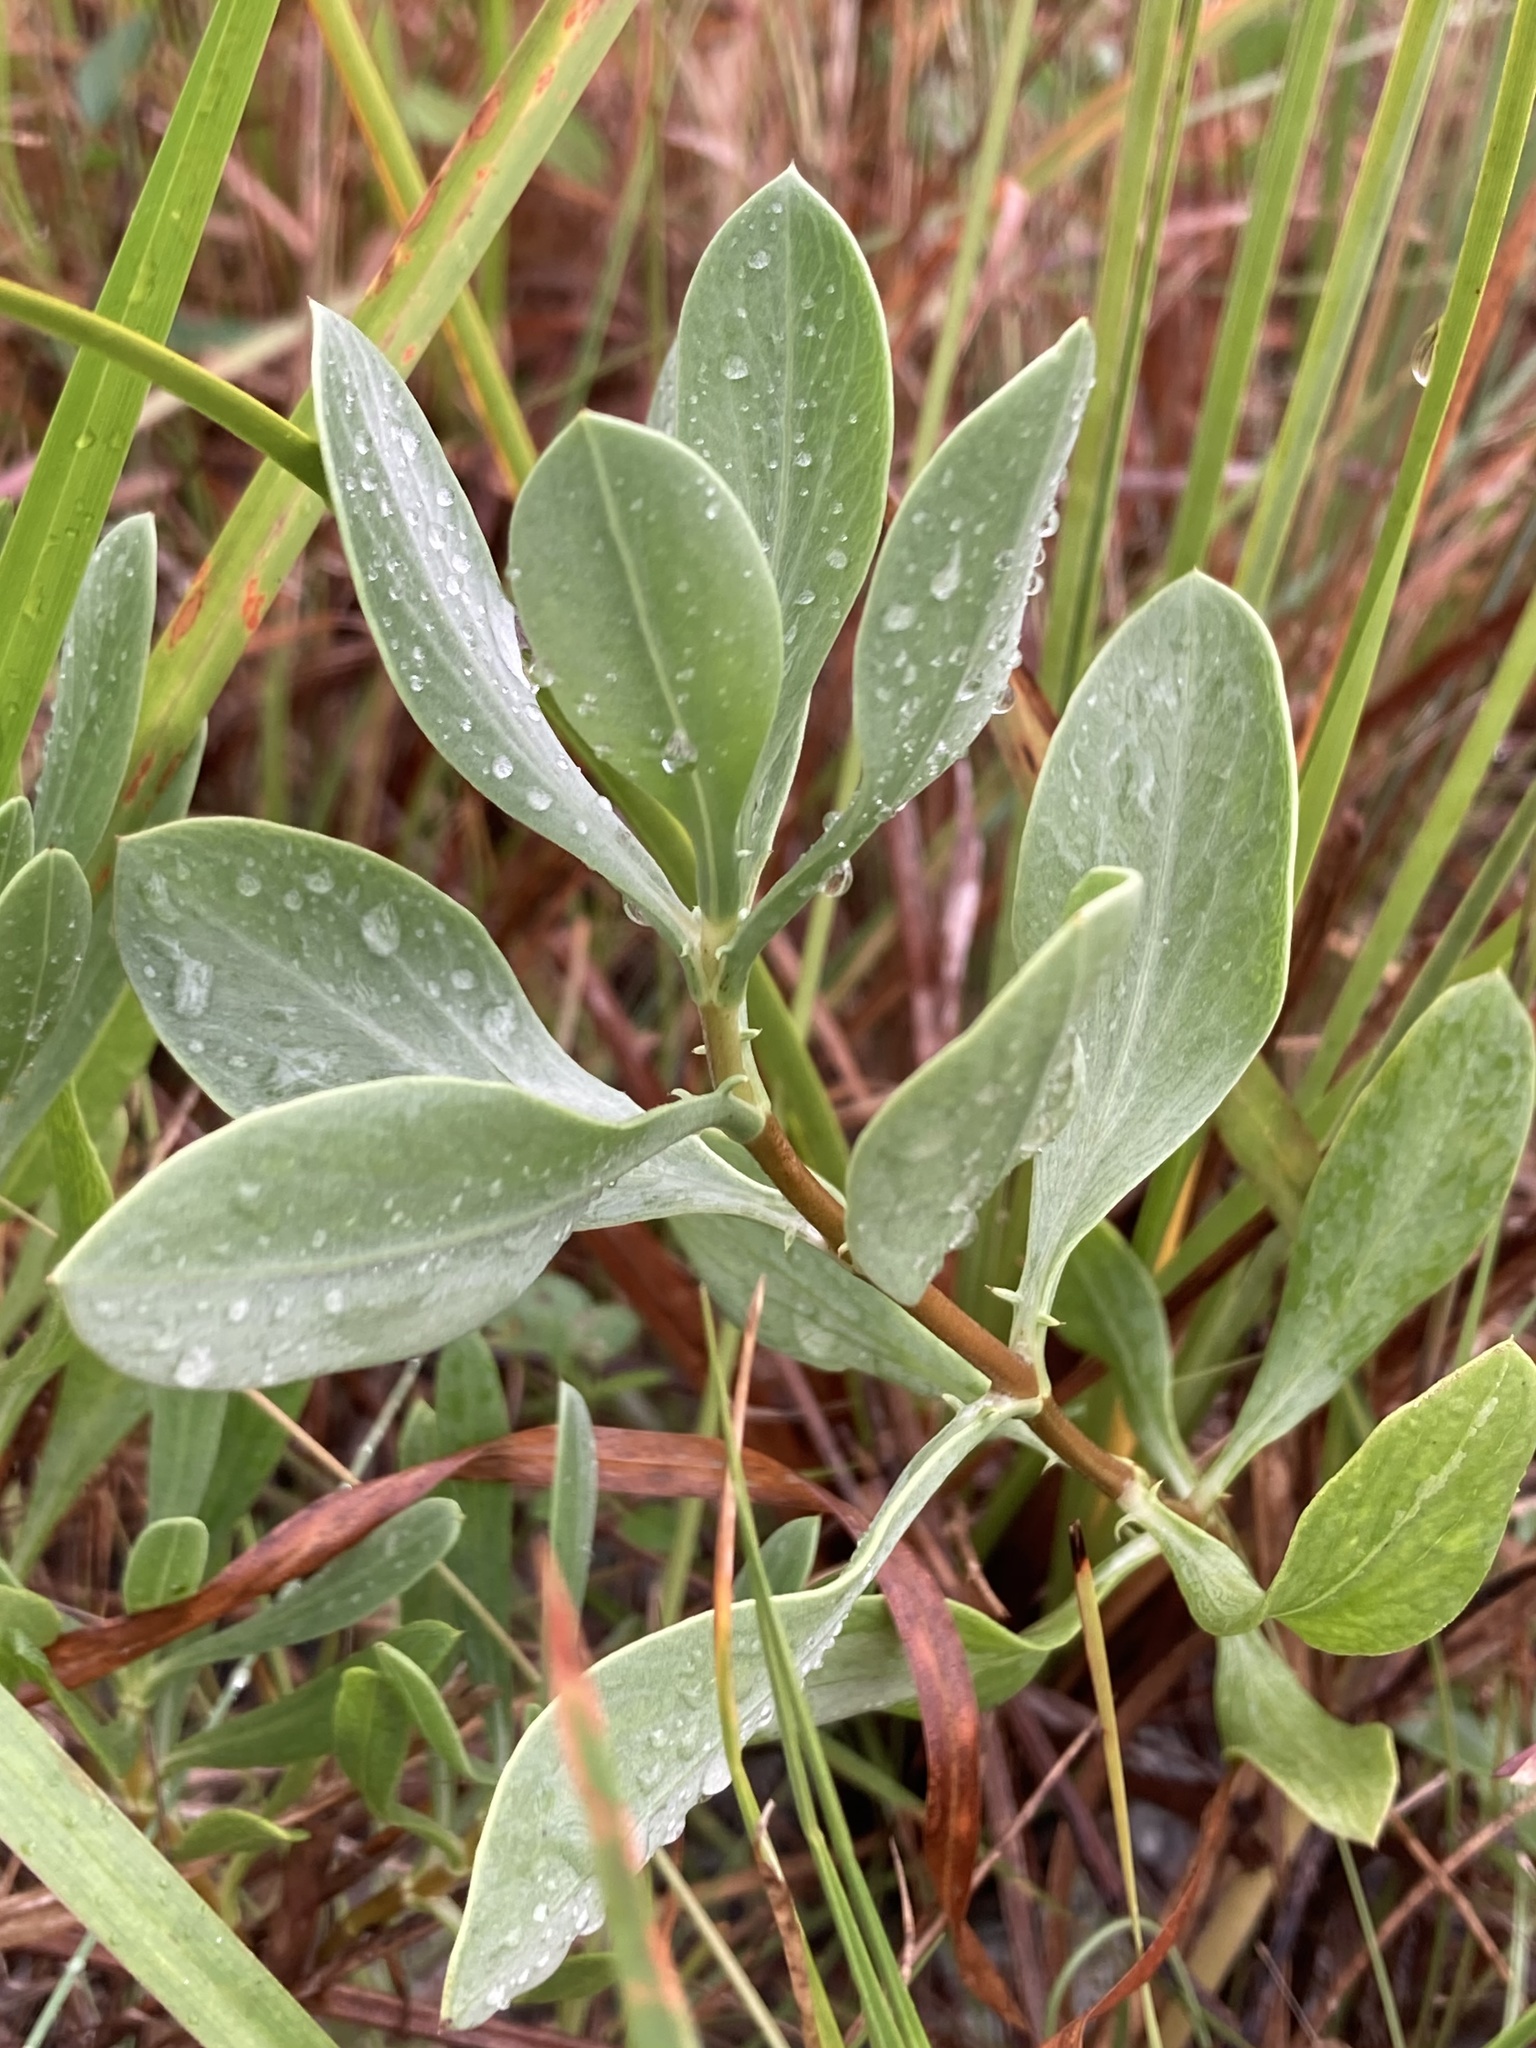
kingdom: Plantae
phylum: Tracheophyta
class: Magnoliopsida
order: Asterales
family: Asteraceae
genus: Borrichia
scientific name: Borrichia frutescens
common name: Sea oxeye
